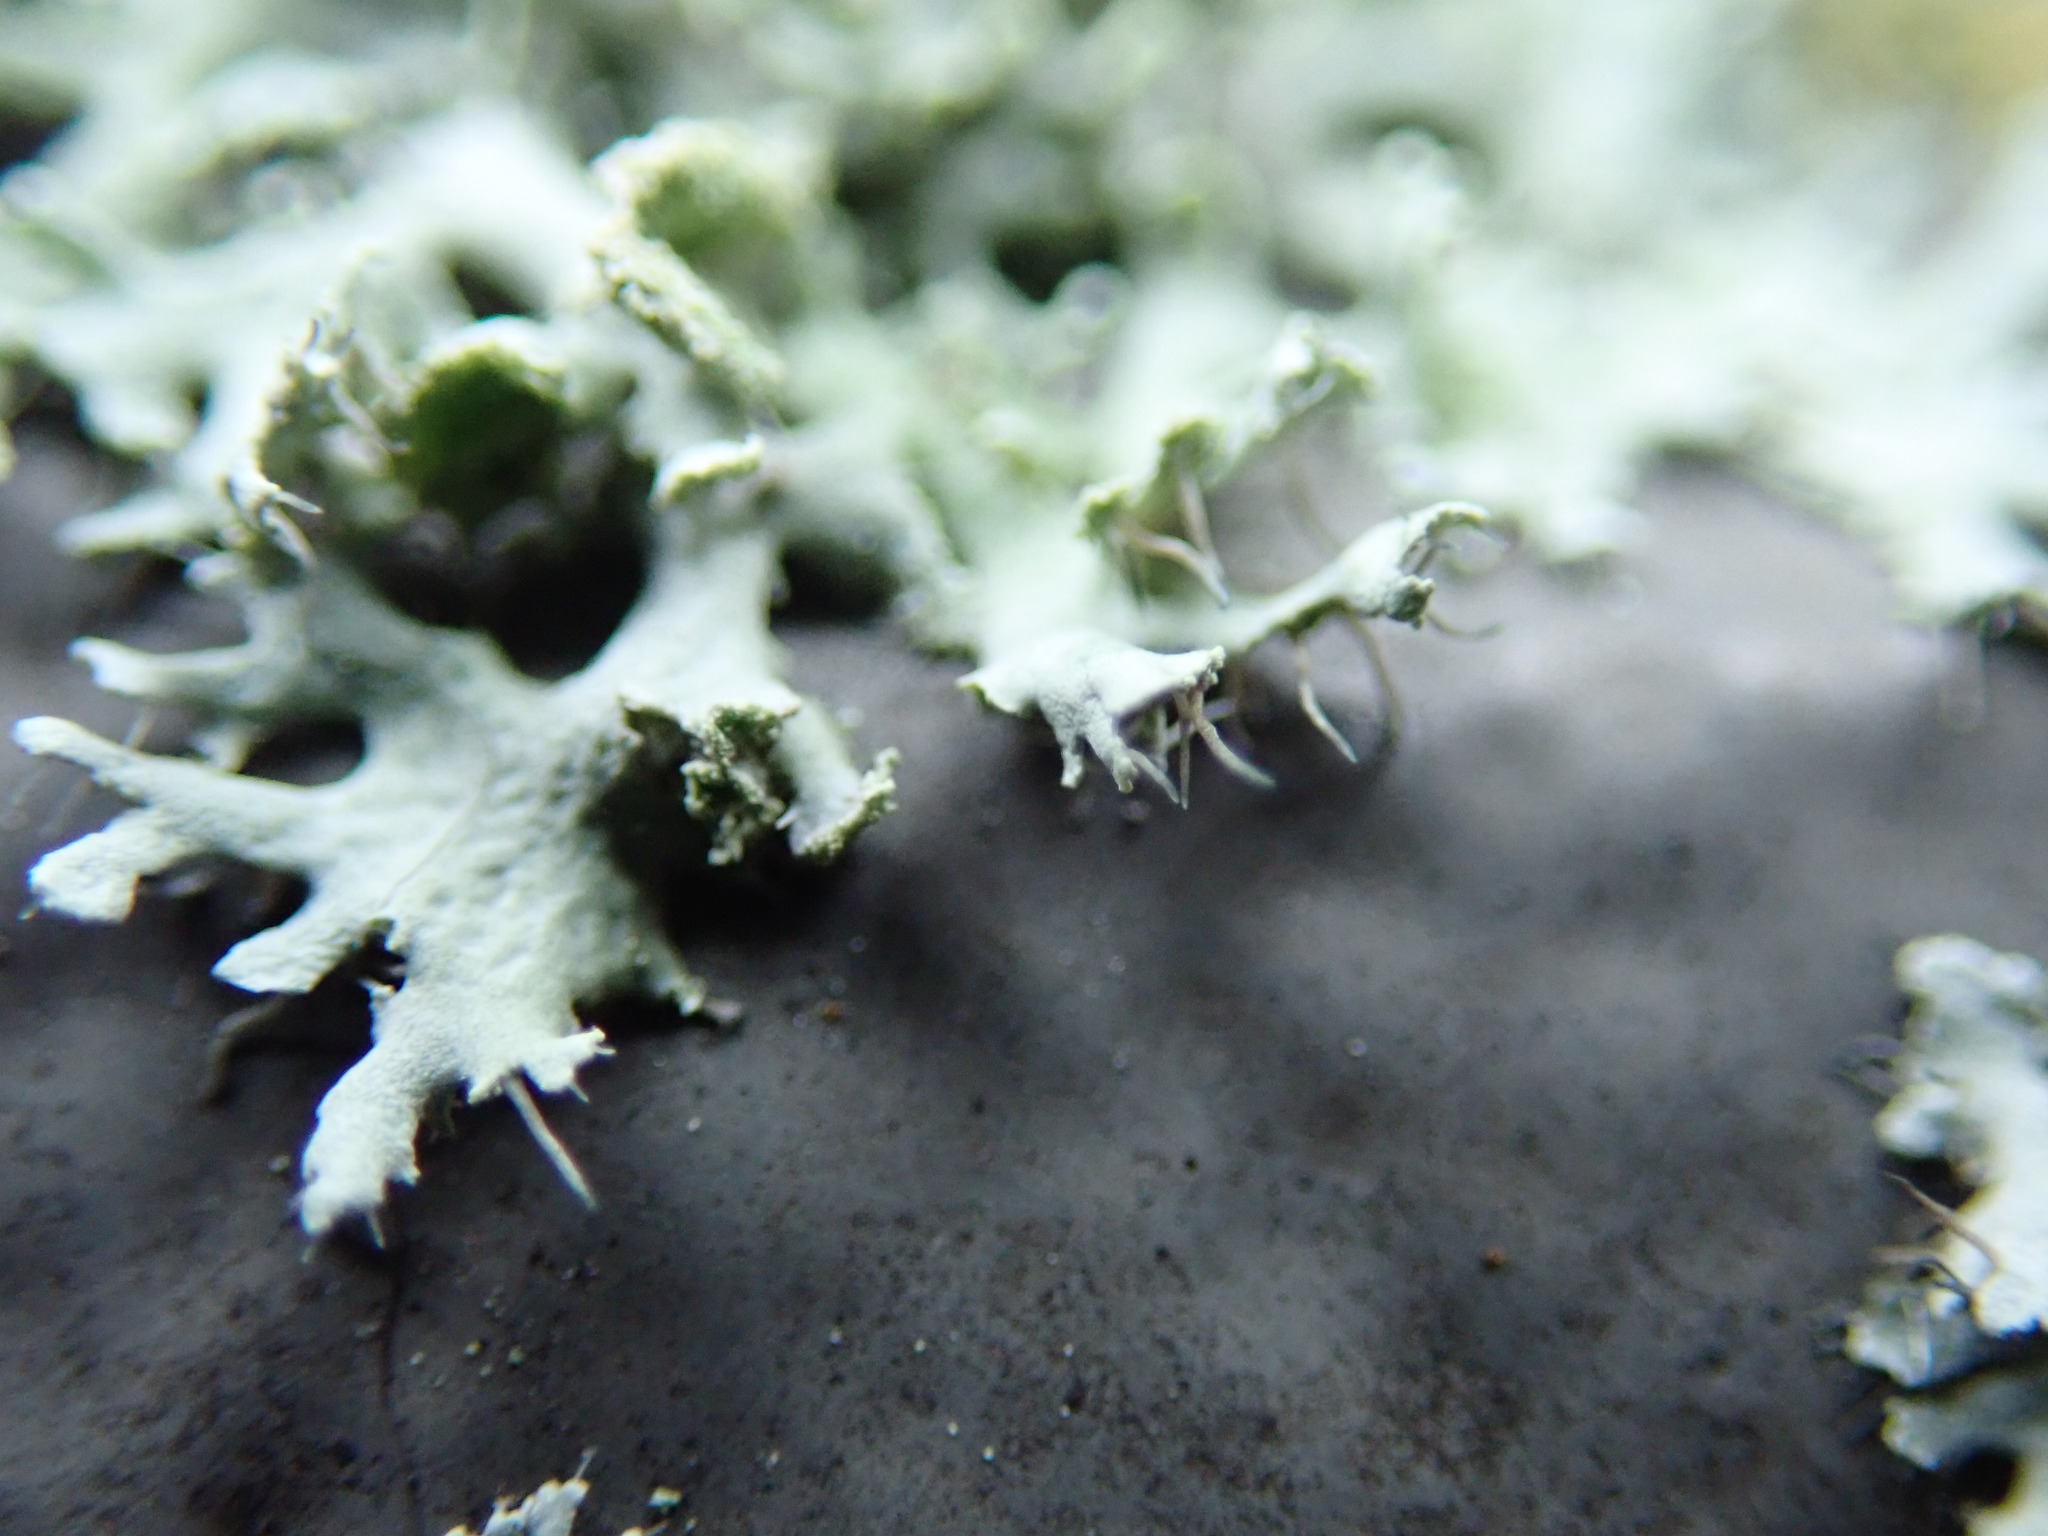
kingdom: Fungi
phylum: Ascomycota
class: Lecanoromycetes
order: Caliciales
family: Physciaceae
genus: Physcia
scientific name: Physcia tenella
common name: Fringed rosette lichen
